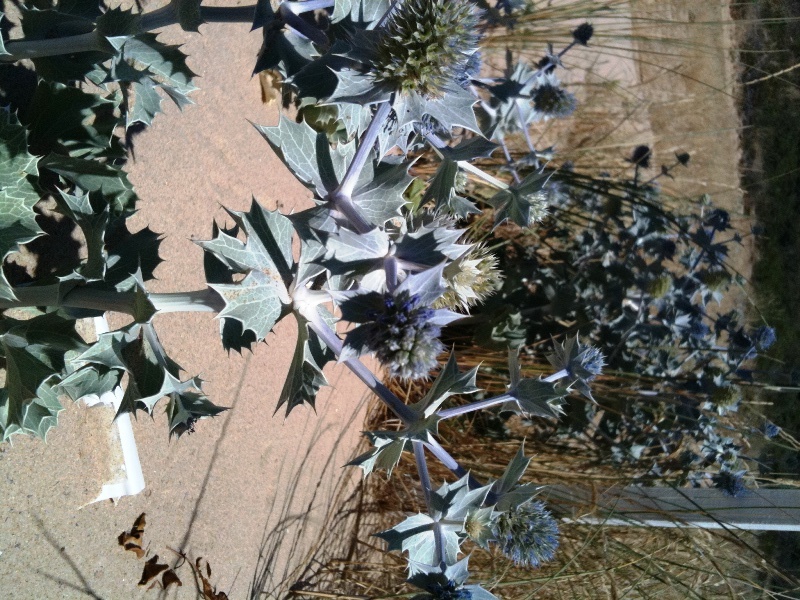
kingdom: Plantae
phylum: Tracheophyta
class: Magnoliopsida
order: Apiales
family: Apiaceae
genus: Eryngium
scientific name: Eryngium maritimum
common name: Sea-holly
